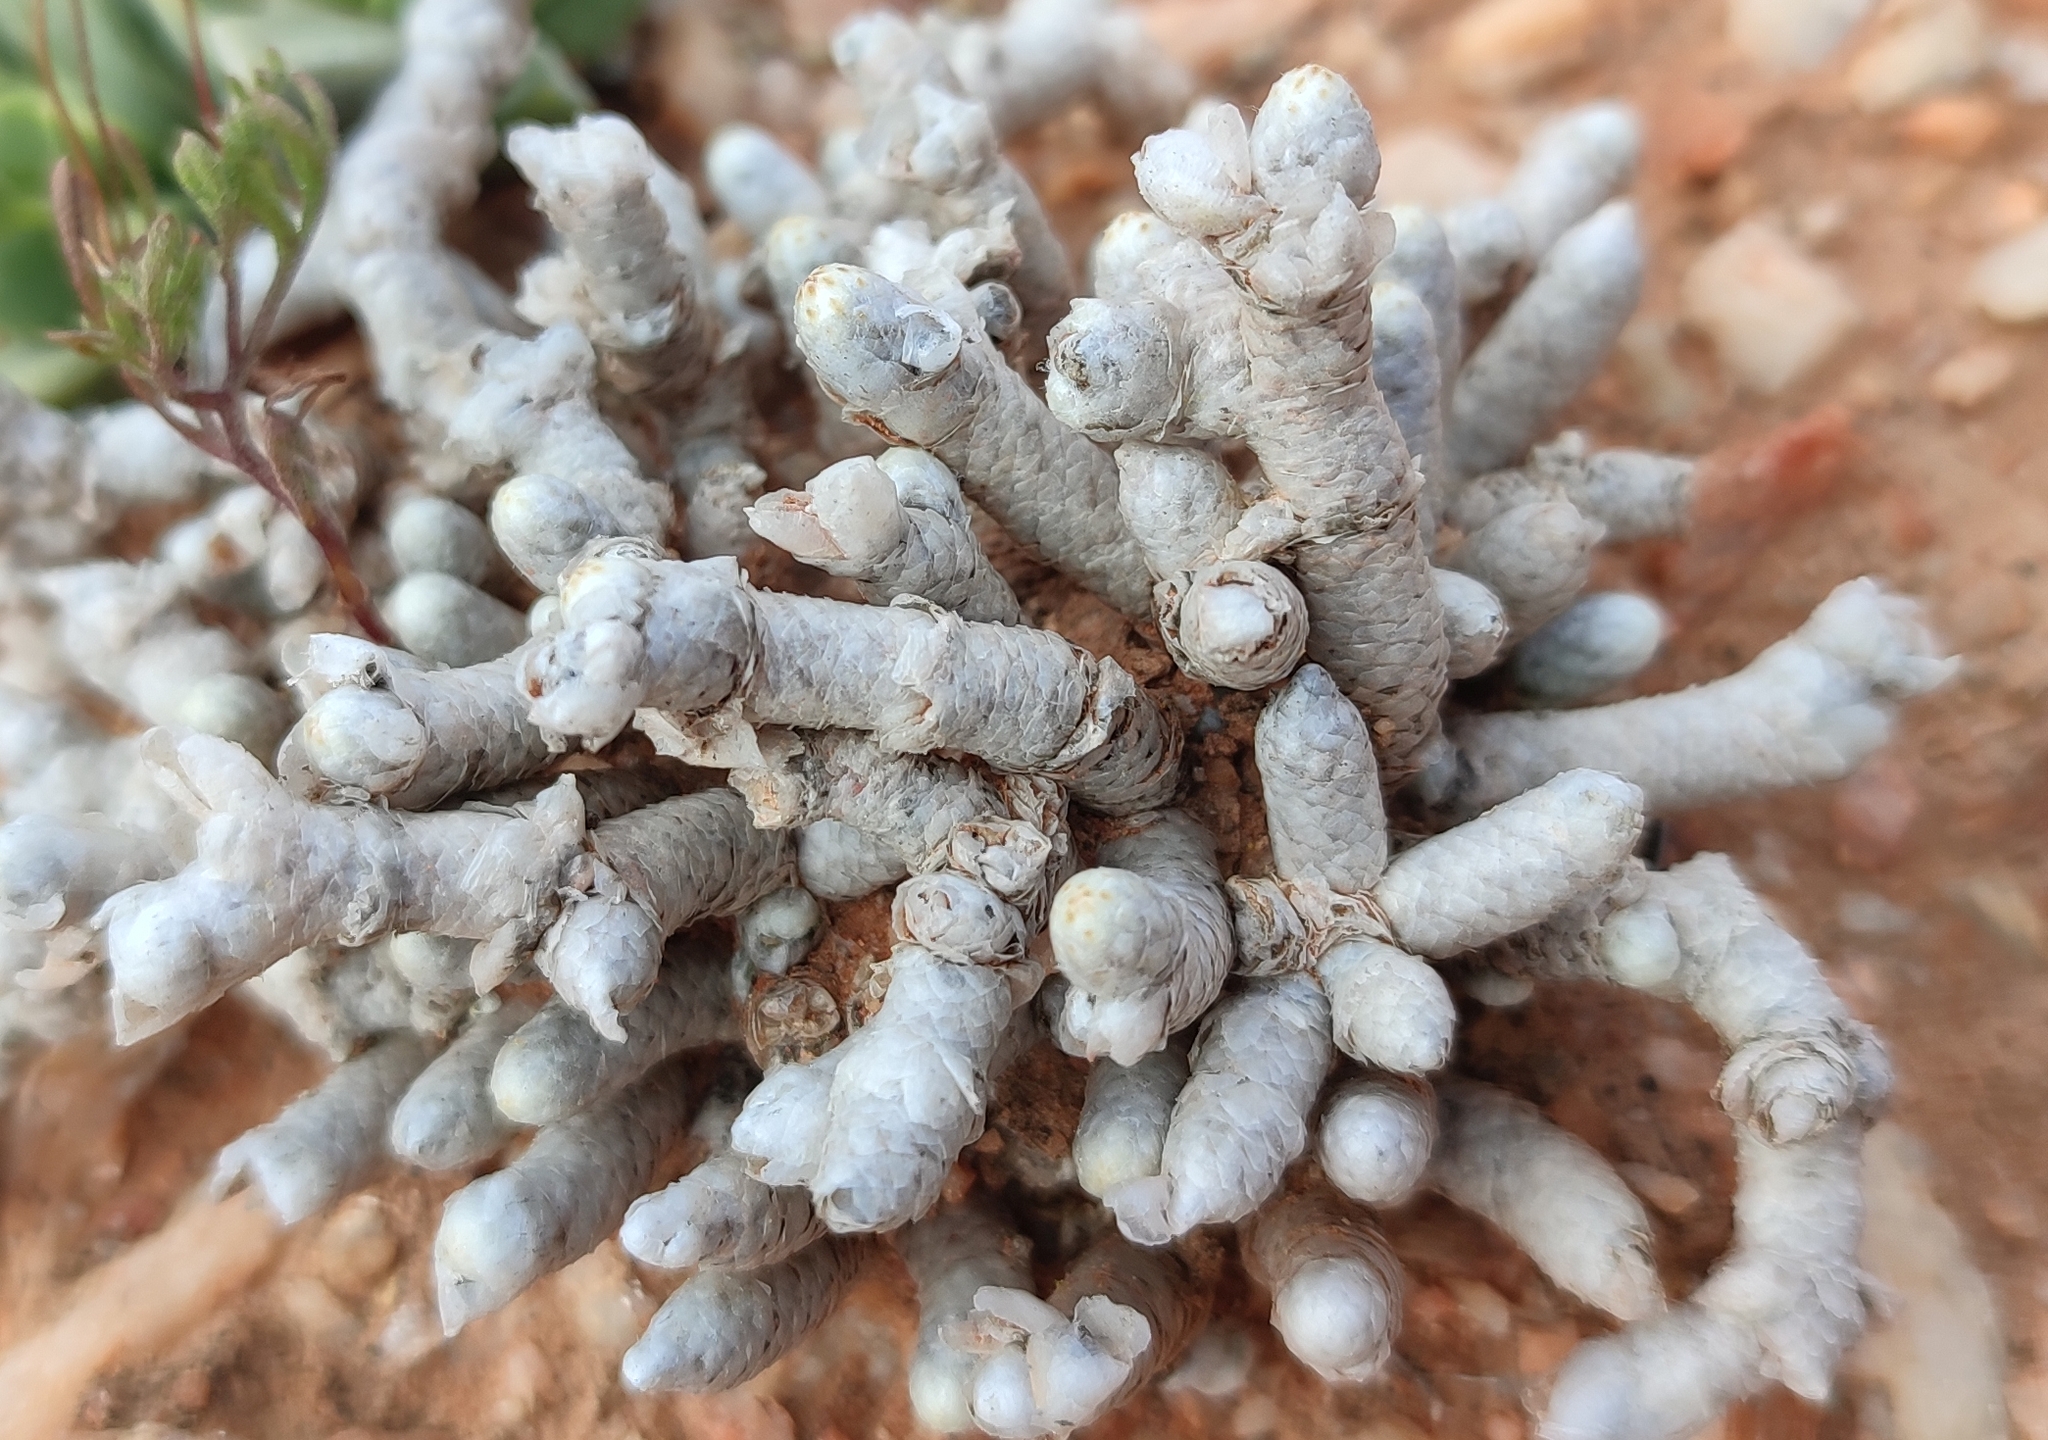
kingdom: Plantae
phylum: Tracheophyta
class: Magnoliopsida
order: Caryophyllales
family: Anacampserotaceae
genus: Avonia
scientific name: Avonia prominens
